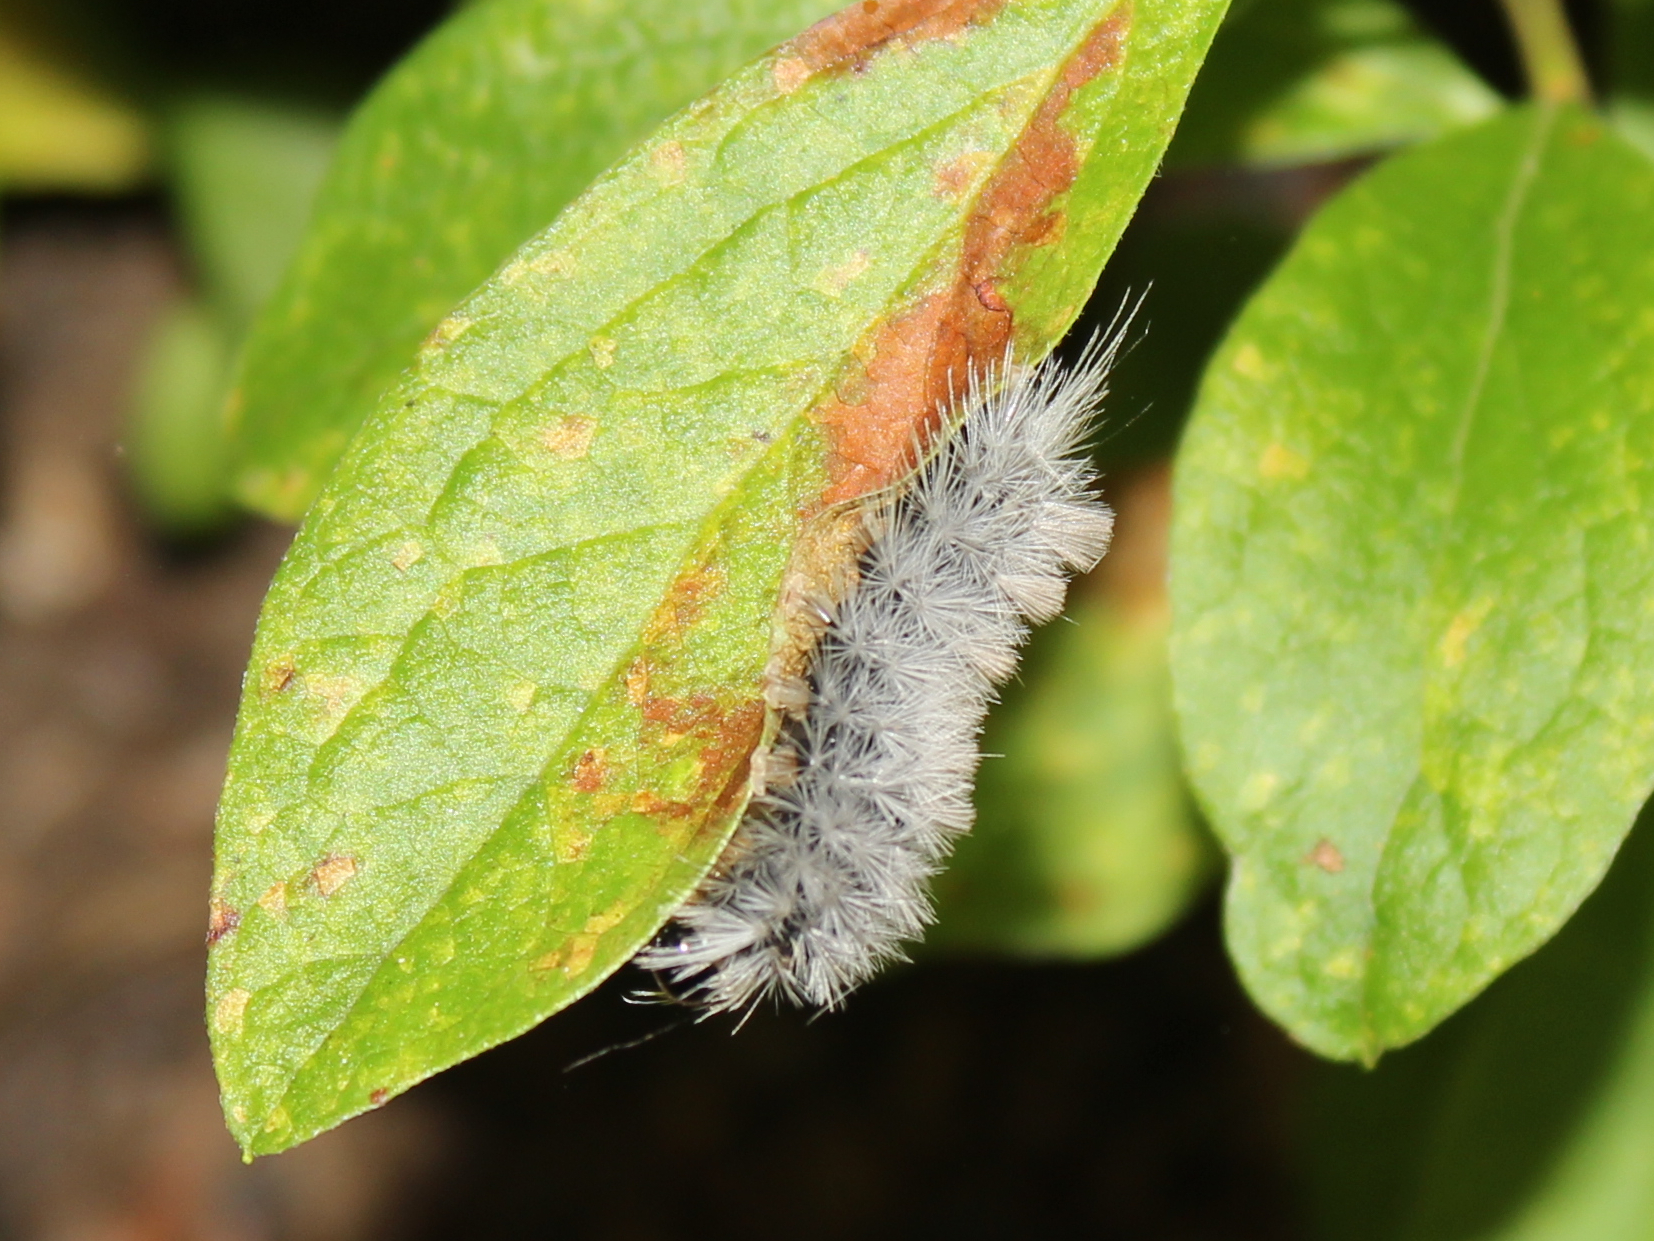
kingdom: Animalia
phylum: Arthropoda
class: Insecta
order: Lepidoptera
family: Erebidae
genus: Halysidota
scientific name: Halysidota tessellaris
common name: Banded tussock moth
